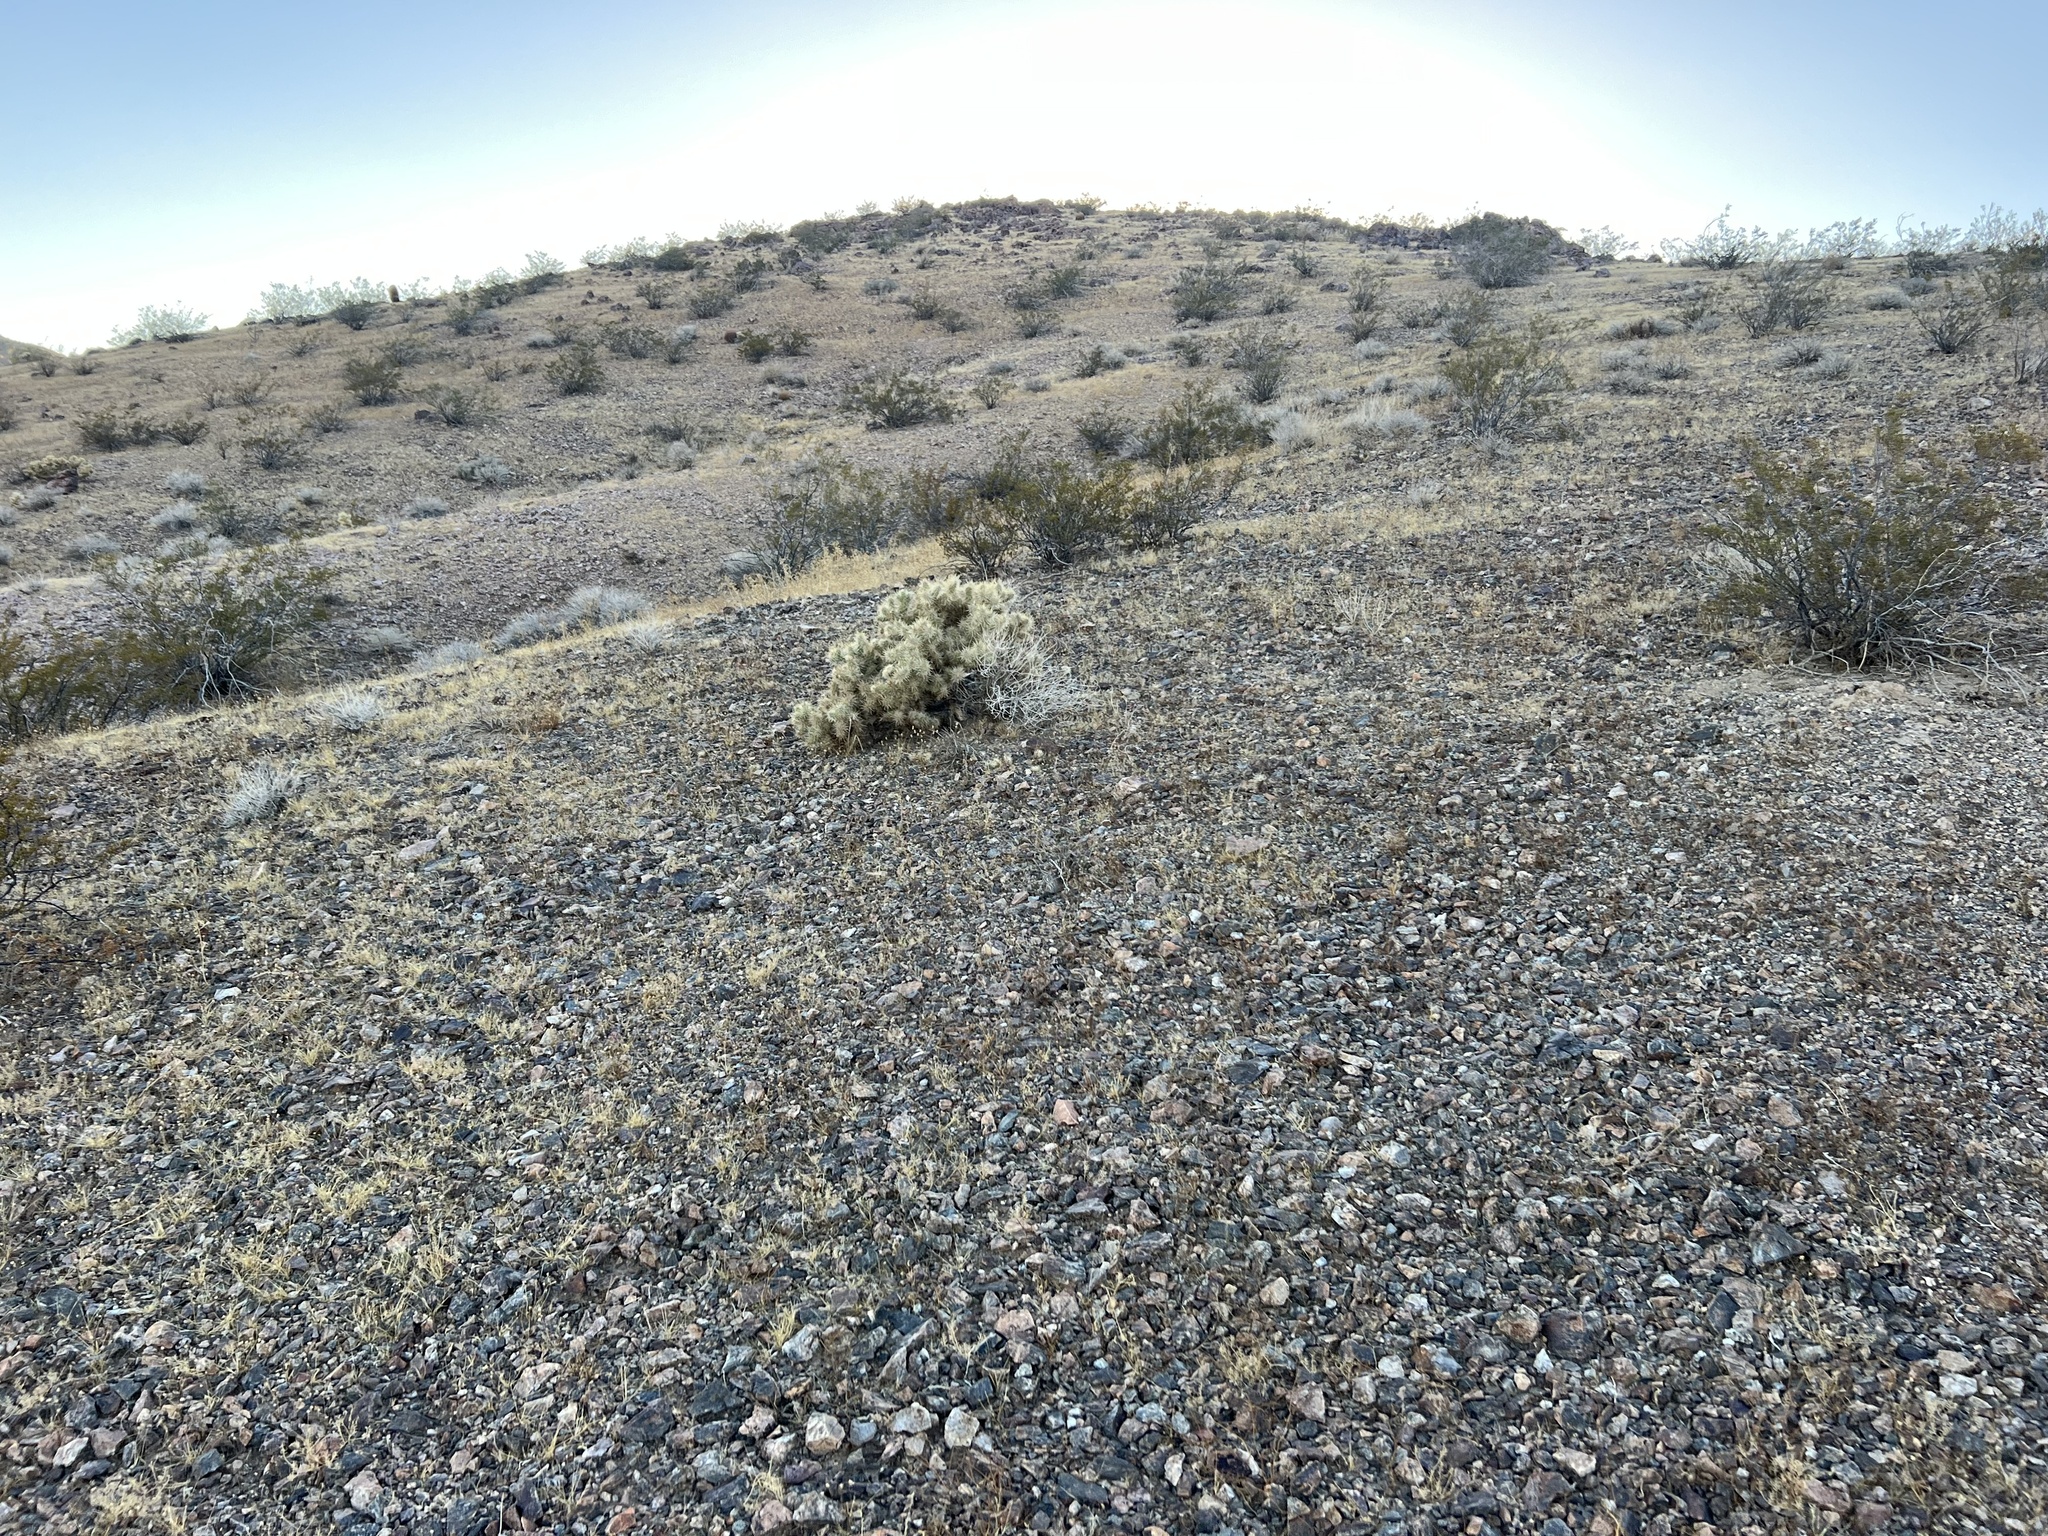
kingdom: Plantae
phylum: Tracheophyta
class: Magnoliopsida
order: Caryophyllales
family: Cactaceae
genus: Cylindropuntia
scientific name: Cylindropuntia echinocarpa
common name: Ground cholla
